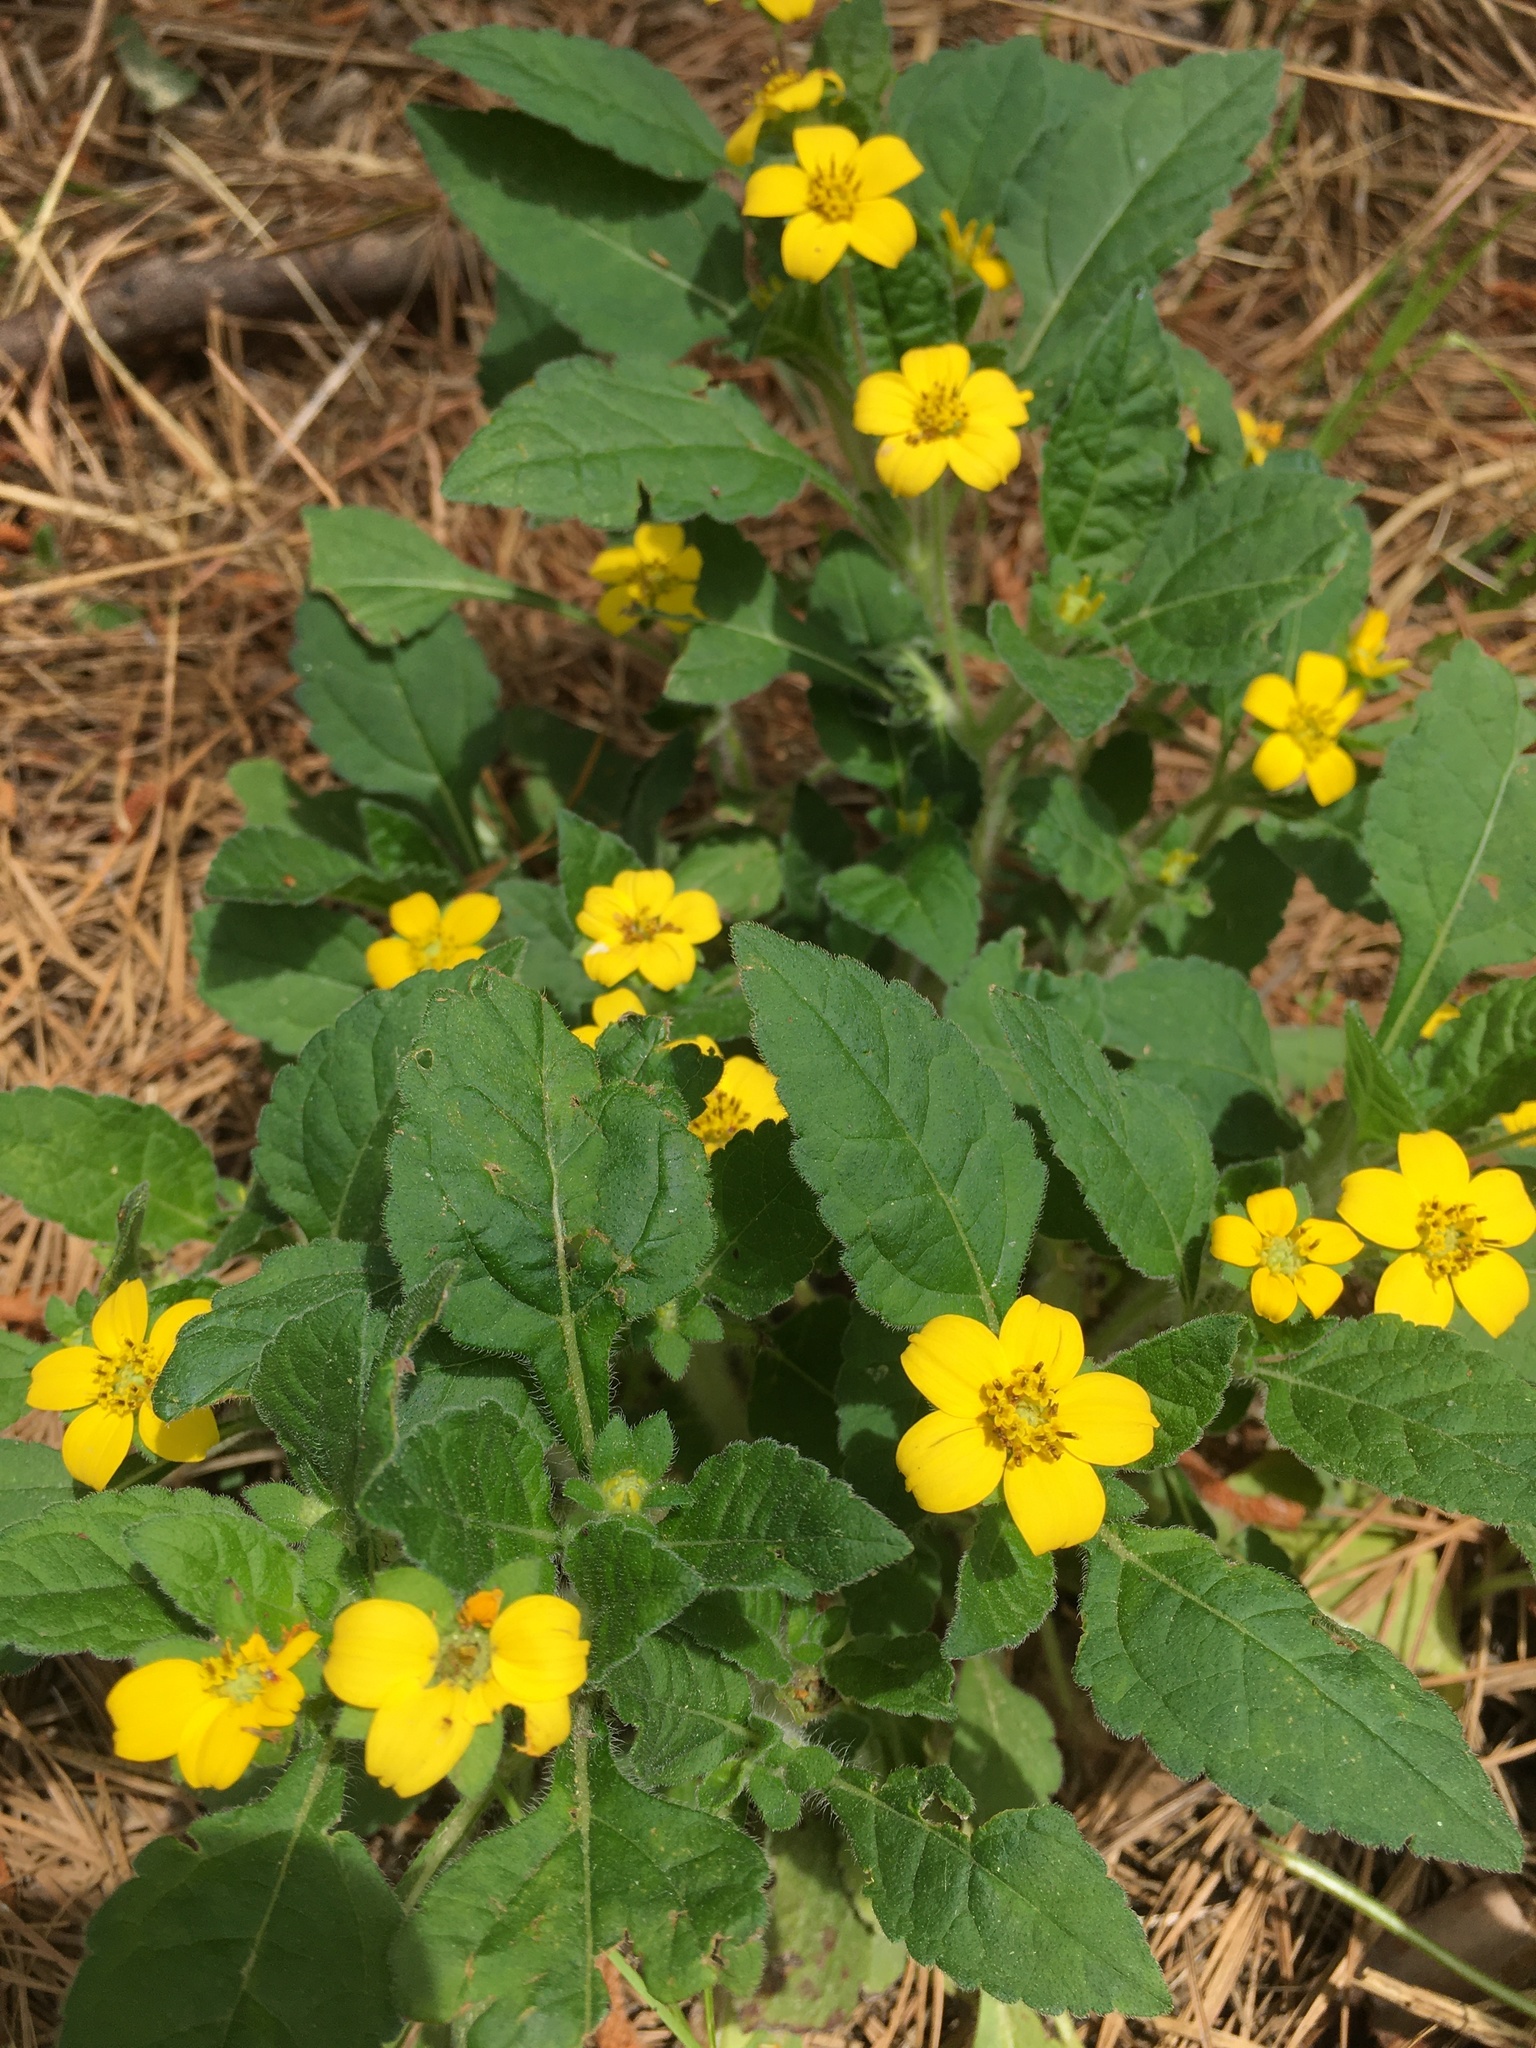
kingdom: Plantae
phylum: Tracheophyta
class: Magnoliopsida
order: Asterales
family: Asteraceae
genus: Chrysogonum
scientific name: Chrysogonum virginianum
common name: Golden-knee
